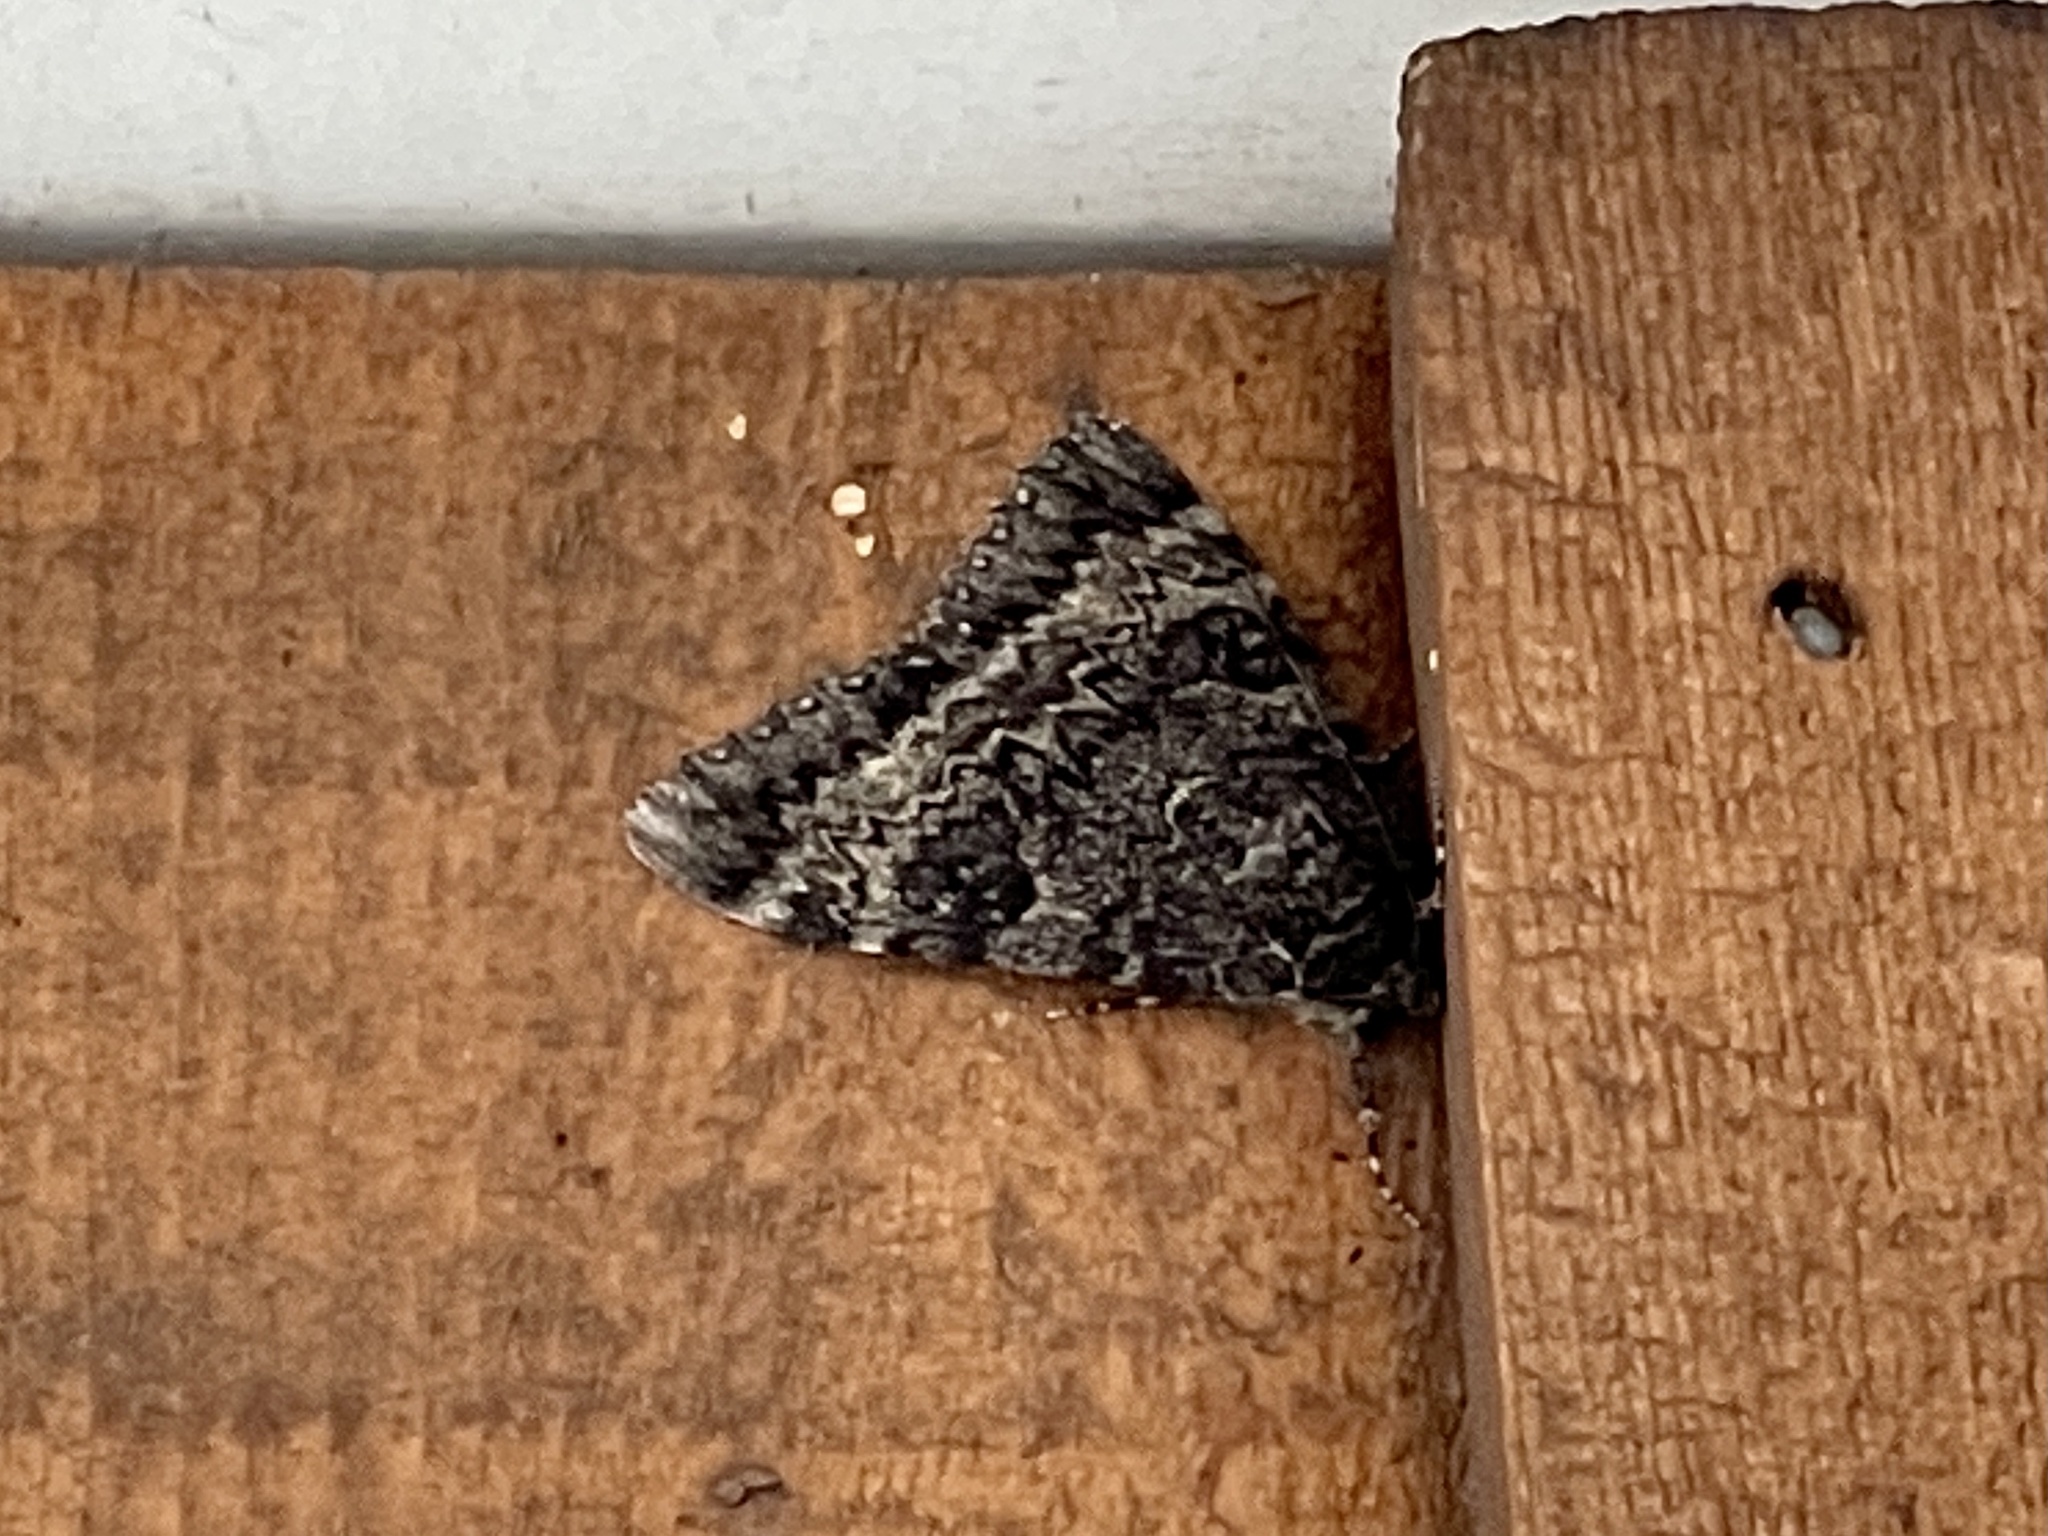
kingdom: Animalia
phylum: Arthropoda
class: Insecta
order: Lepidoptera
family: Erebidae
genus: Catocala
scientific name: Catocala californica
